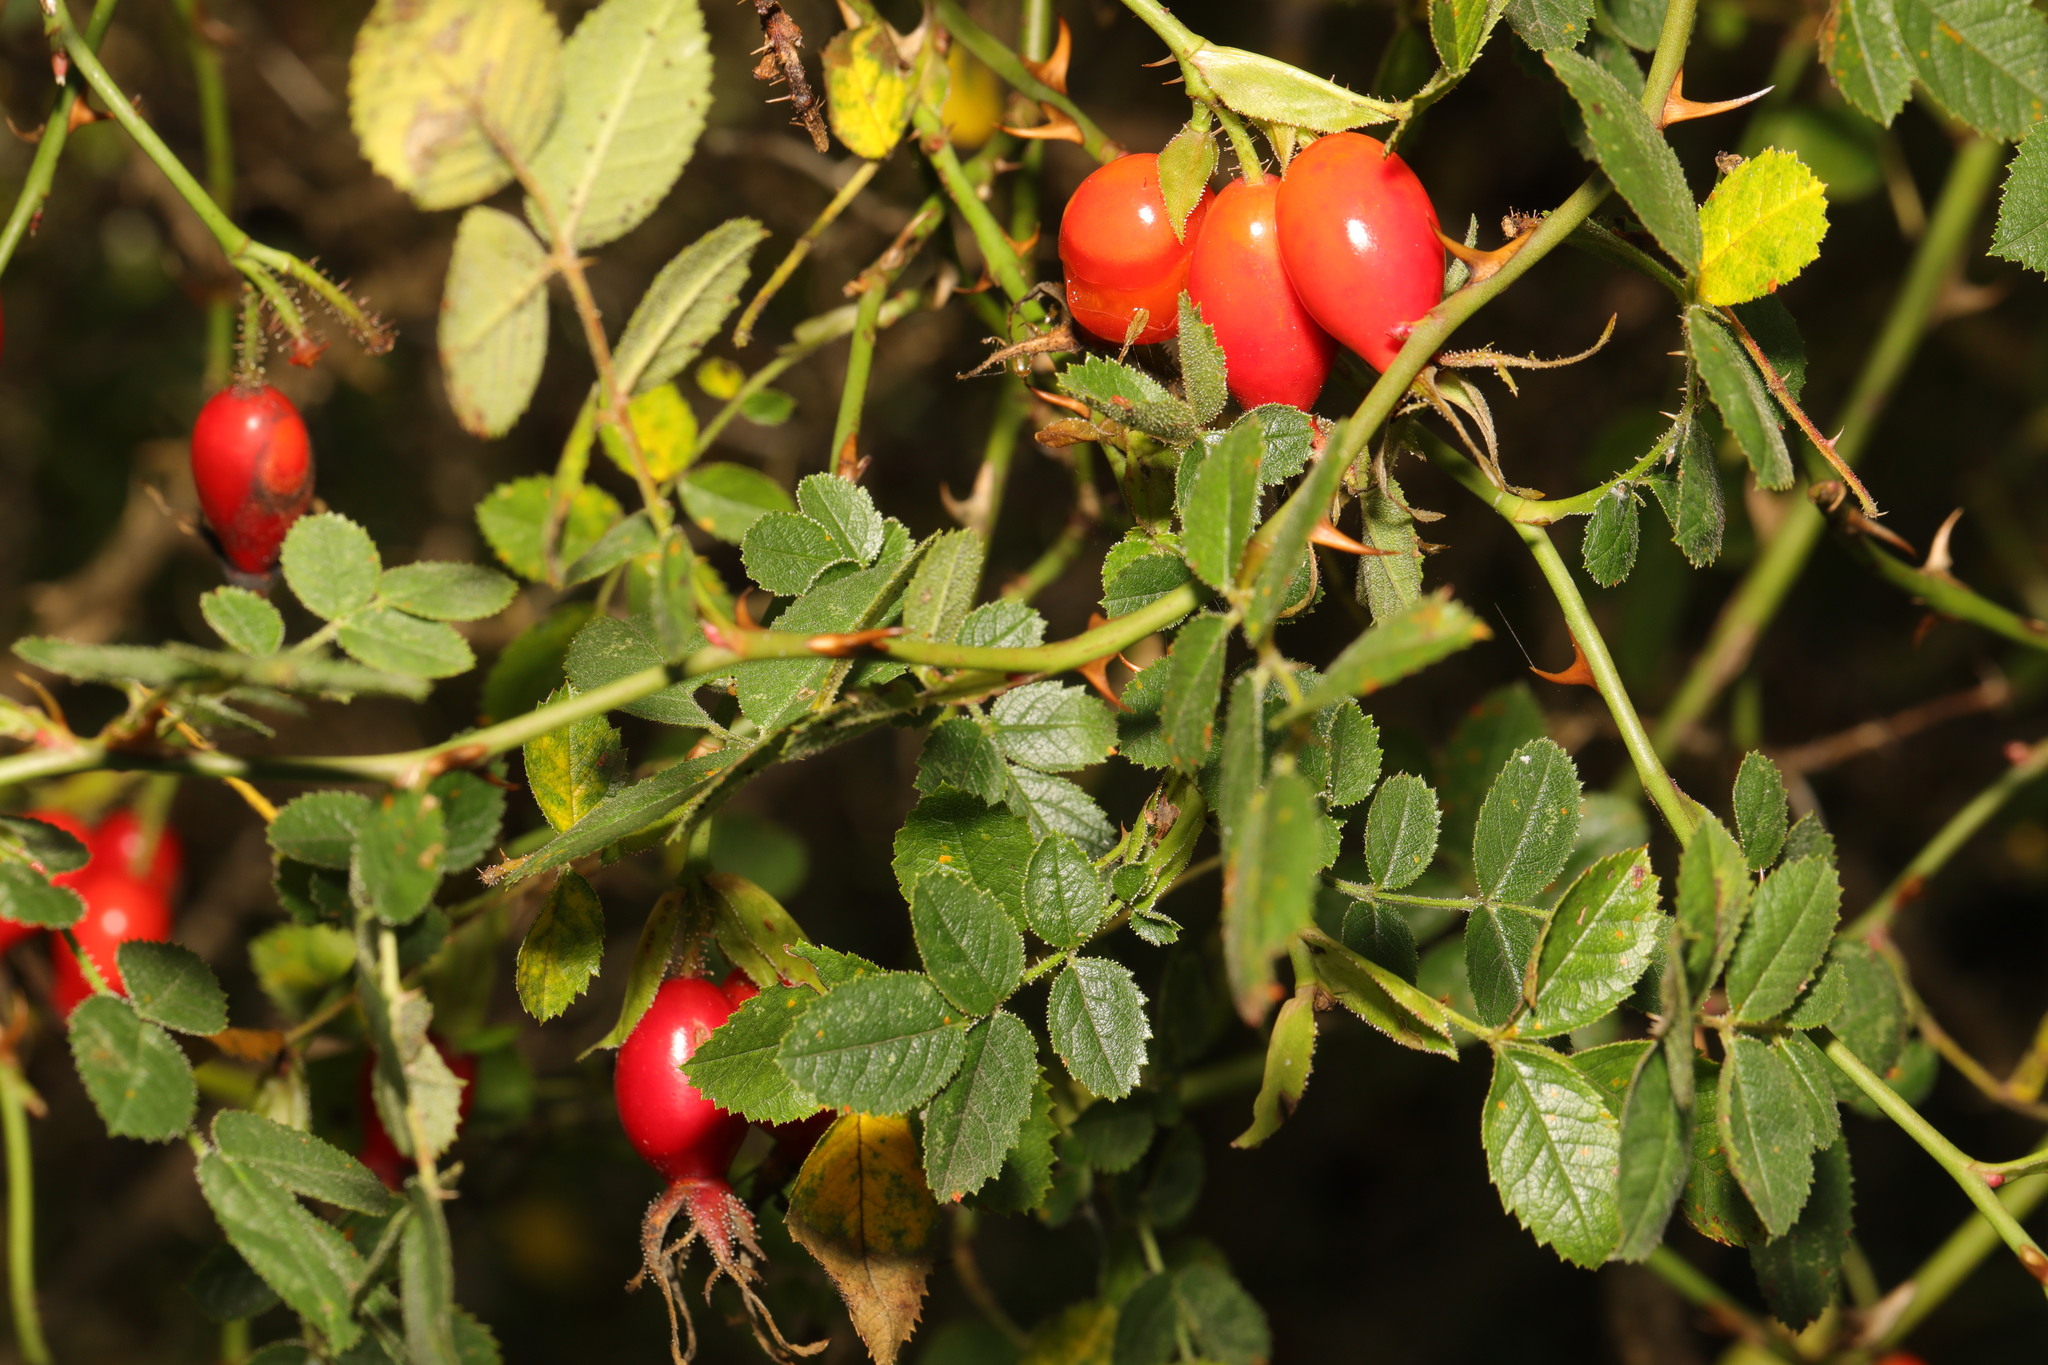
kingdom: Plantae
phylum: Tracheophyta
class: Magnoliopsida
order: Rosales
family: Rosaceae
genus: Rosa
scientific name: Rosa canina
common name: Dog rose
